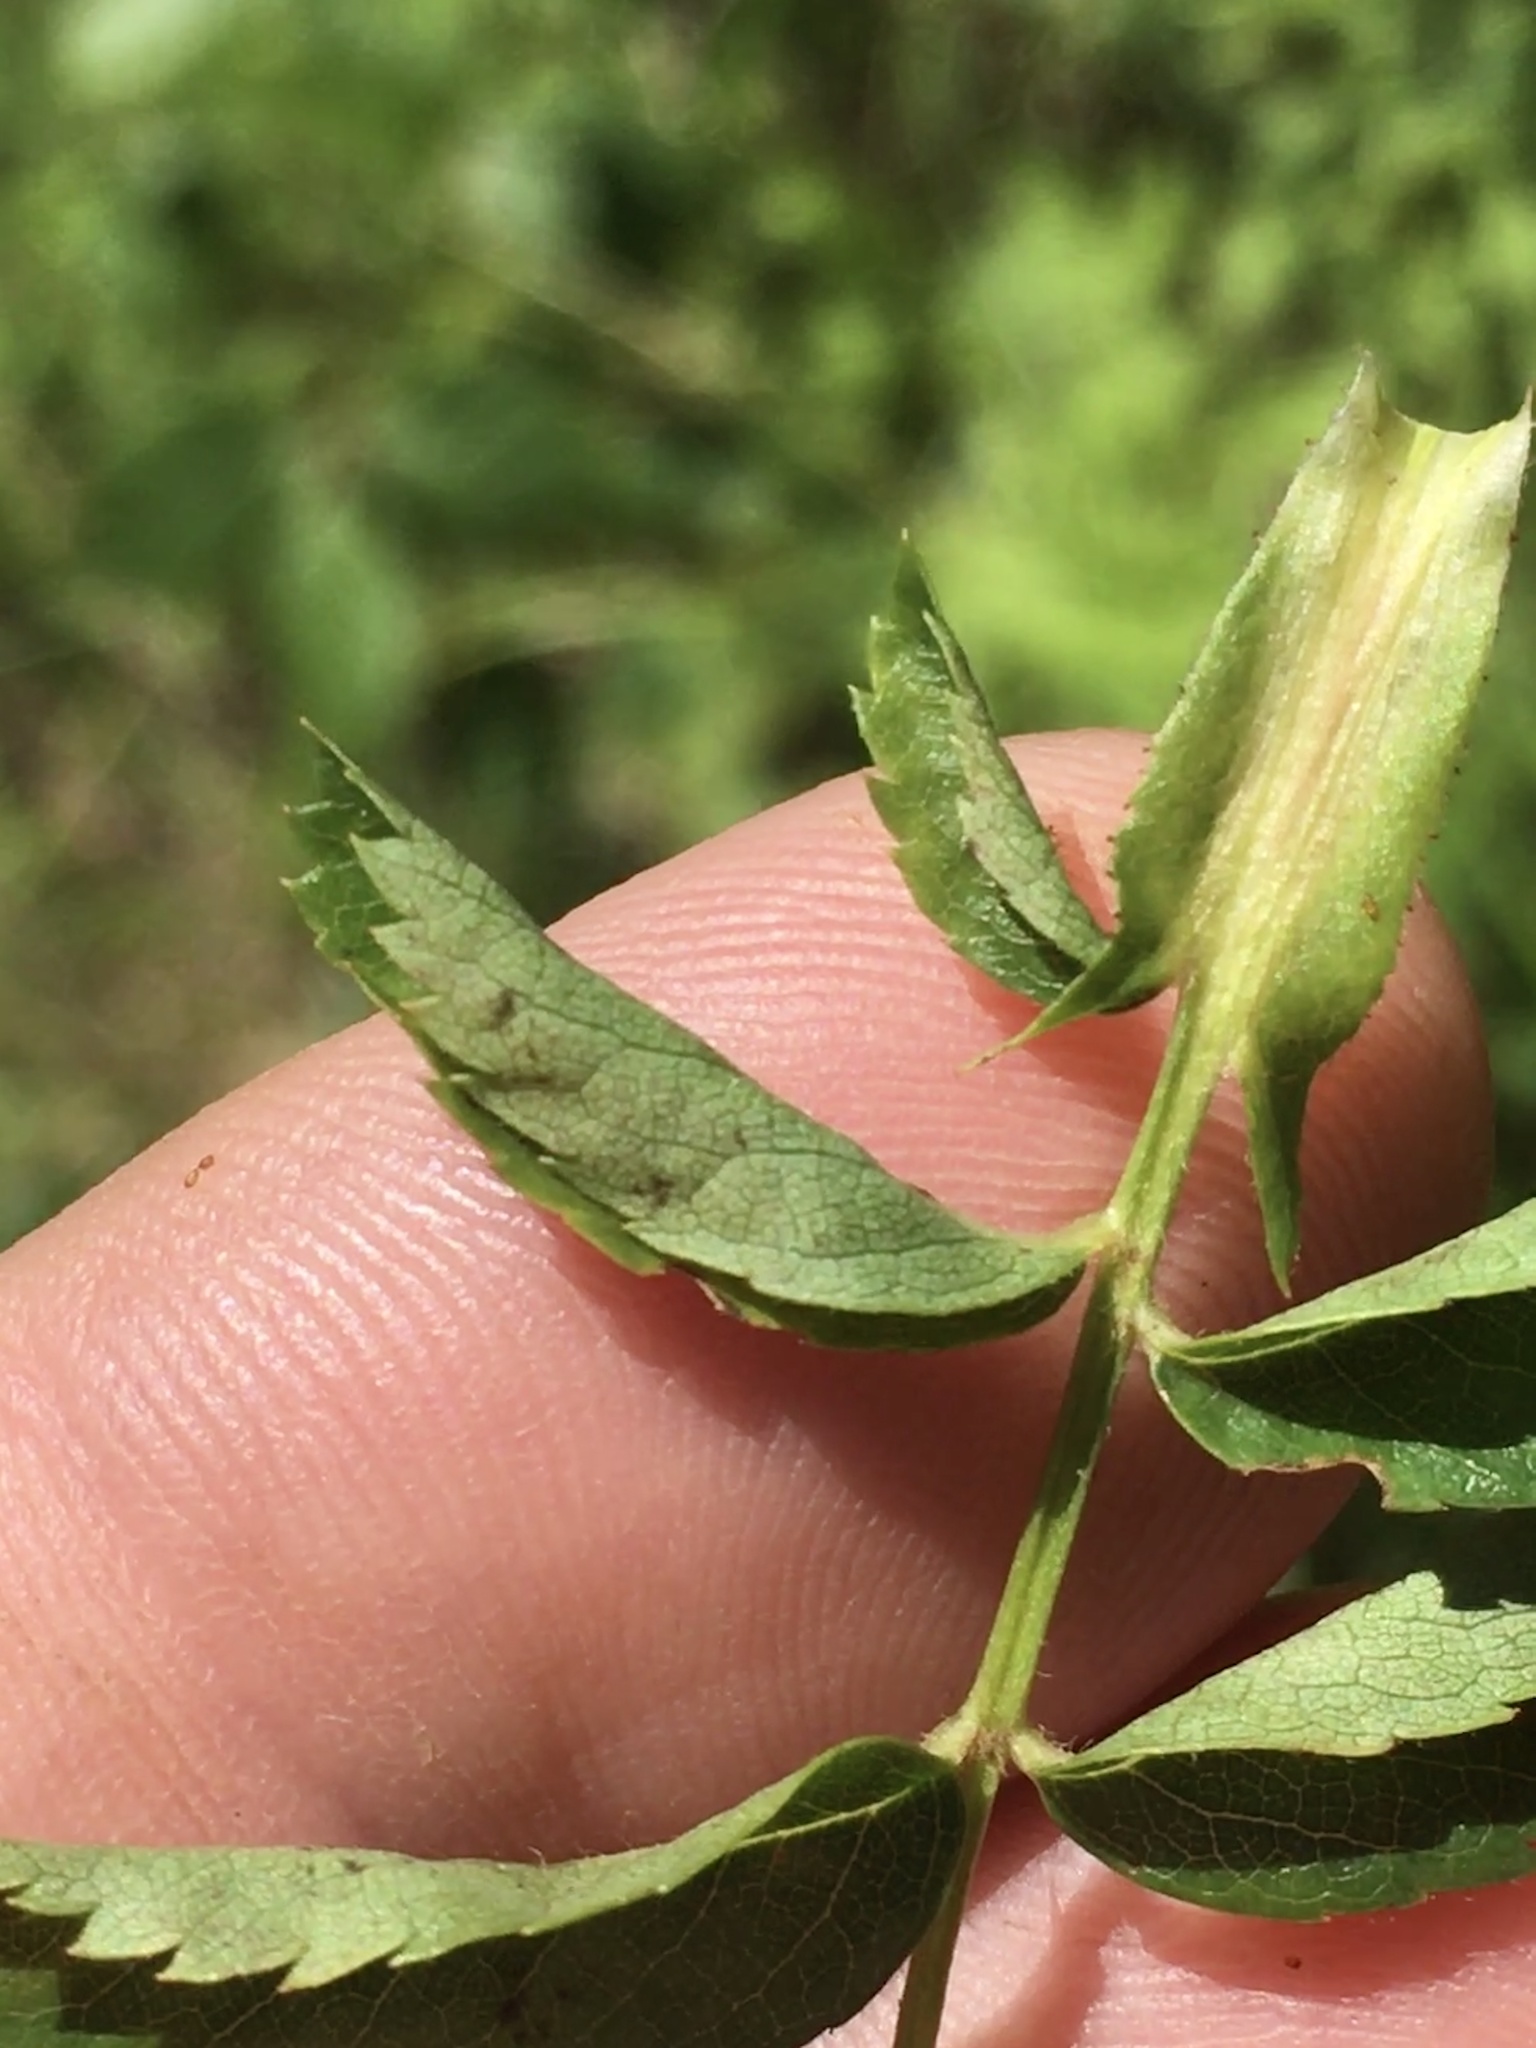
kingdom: Plantae
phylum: Tracheophyta
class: Magnoliopsida
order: Rosales
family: Rosaceae
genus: Rosa
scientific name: Rosa carolina
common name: Pasture rose
